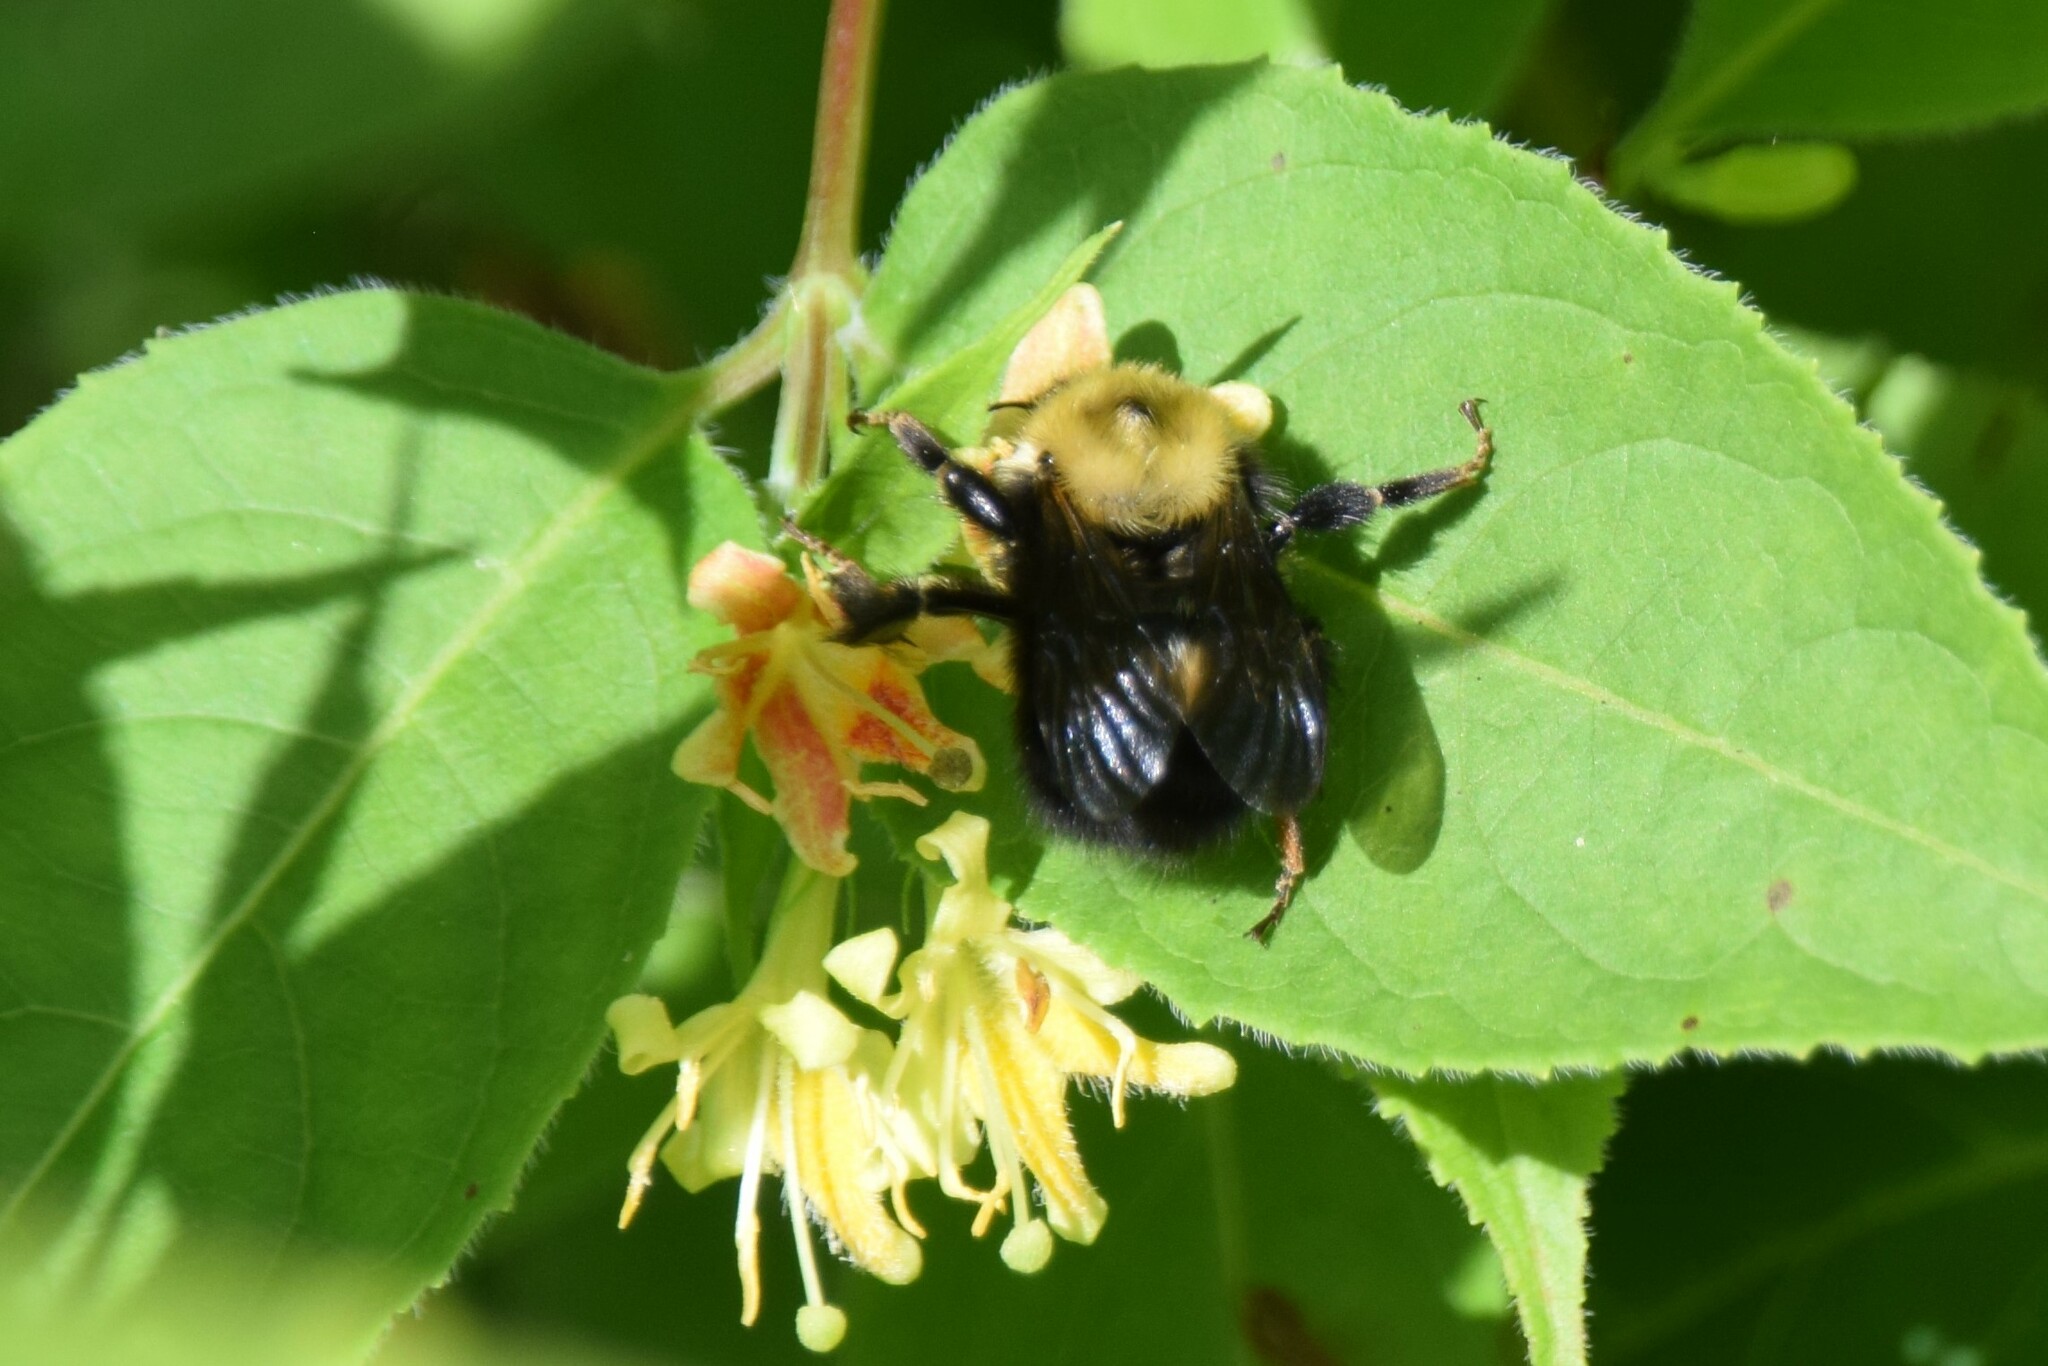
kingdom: Animalia
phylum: Arthropoda
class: Insecta
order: Hymenoptera
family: Apidae
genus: Bombus
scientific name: Bombus perplexus
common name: Confusing bumble bee
